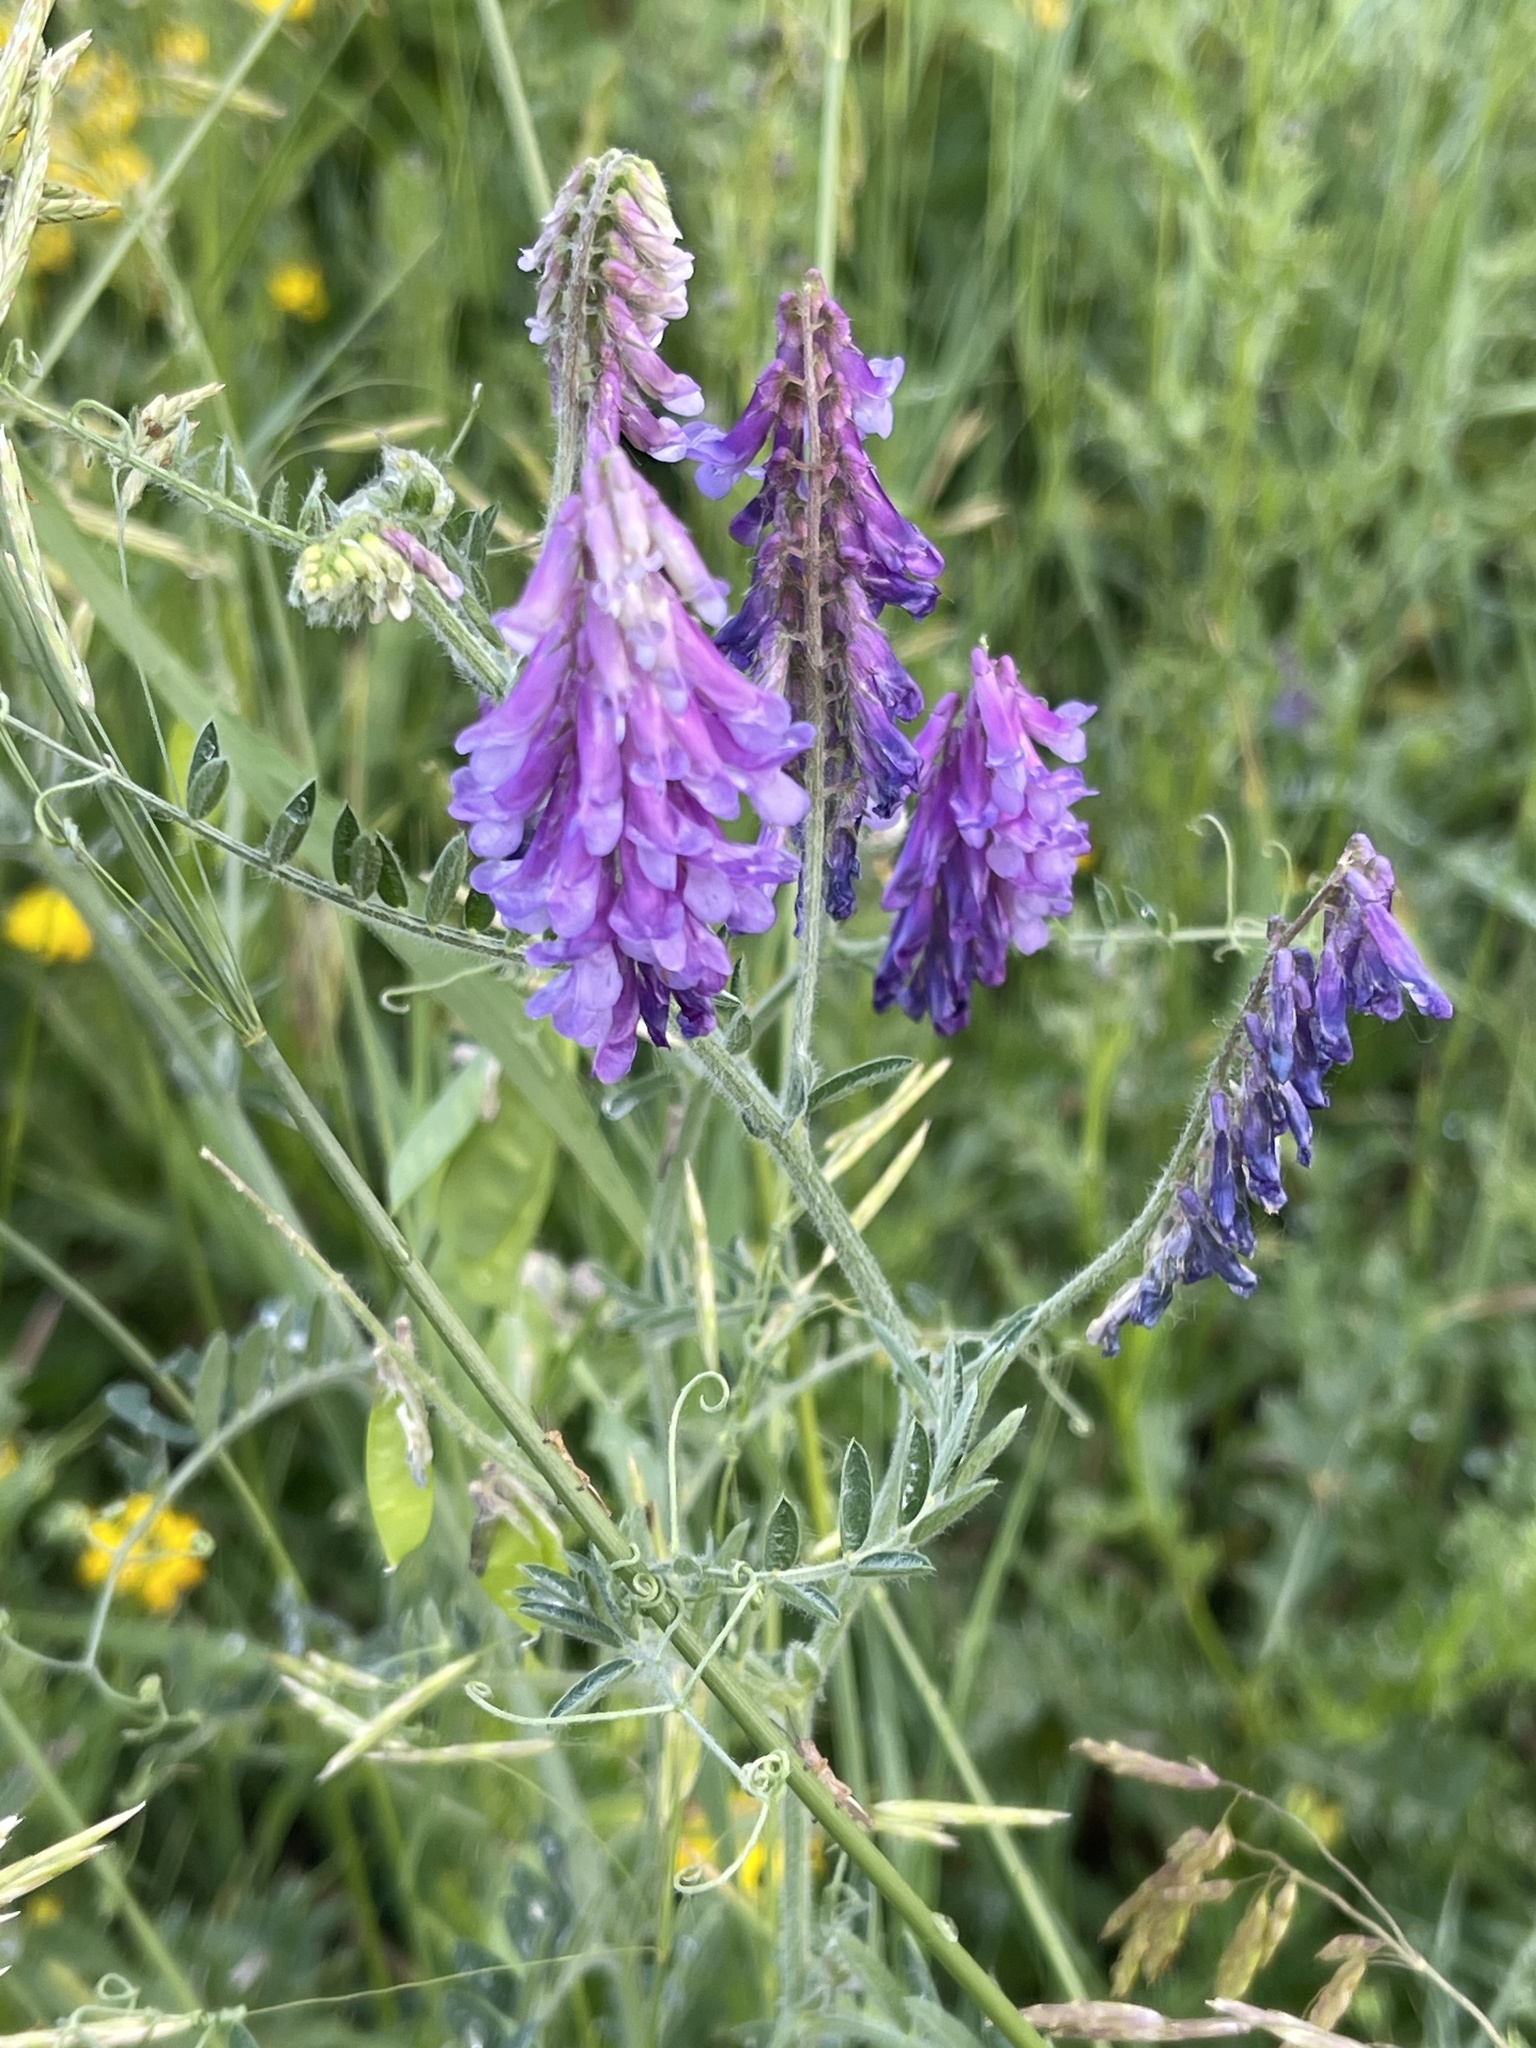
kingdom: Plantae
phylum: Tracheophyta
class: Magnoliopsida
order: Fabales
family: Fabaceae
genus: Vicia
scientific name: Vicia villosa
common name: Fodder vetch
